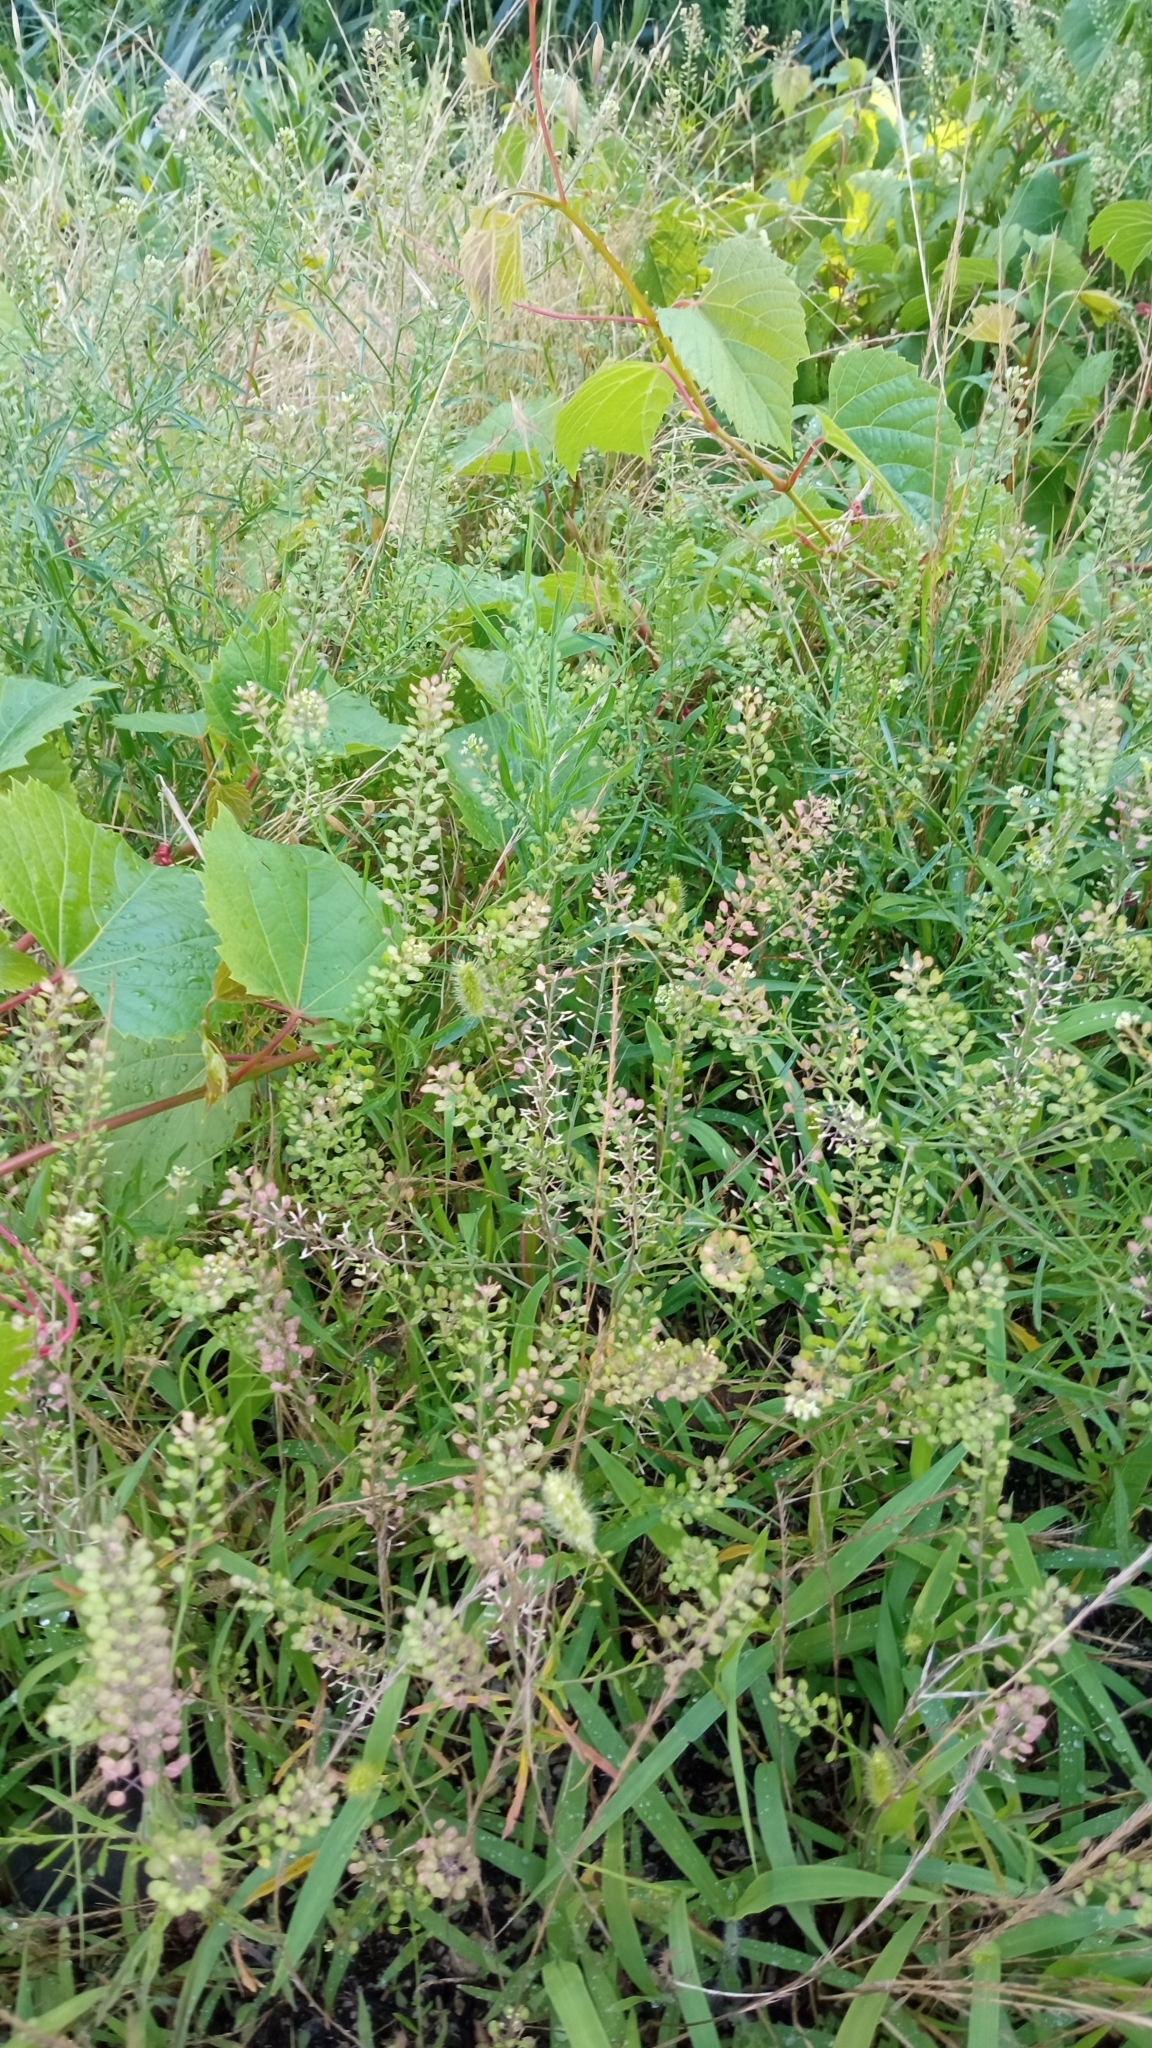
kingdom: Plantae
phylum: Tracheophyta
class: Magnoliopsida
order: Brassicales
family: Brassicaceae
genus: Lepidium
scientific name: Lepidium virginicum
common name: Least pepperwort
